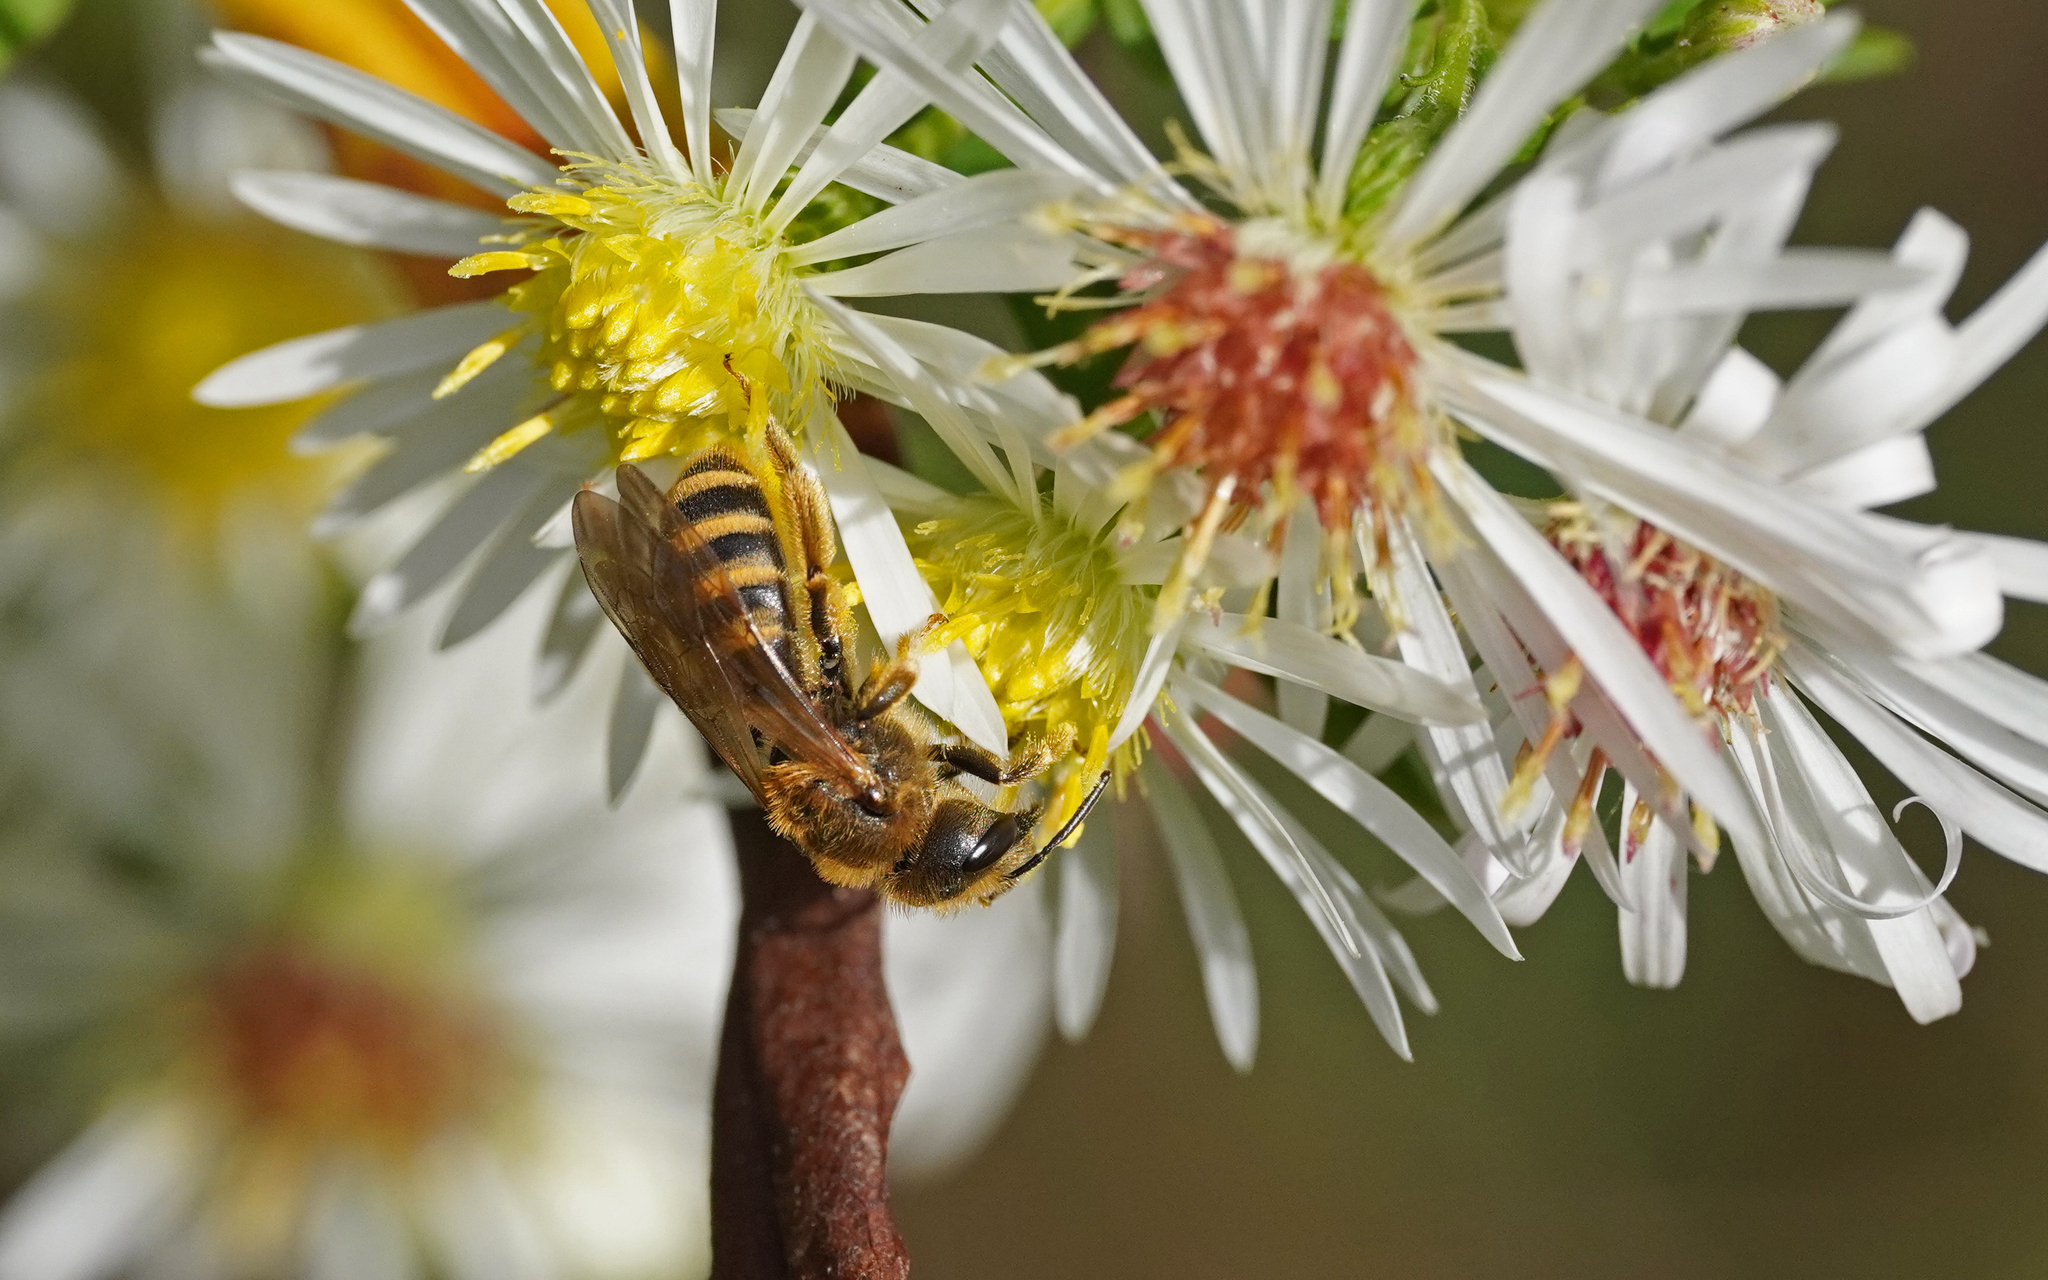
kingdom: Animalia
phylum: Arthropoda
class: Insecta
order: Hymenoptera
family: Halictidae
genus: Halictus
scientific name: Halictus scabiosae
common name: Great banded furrow bee
